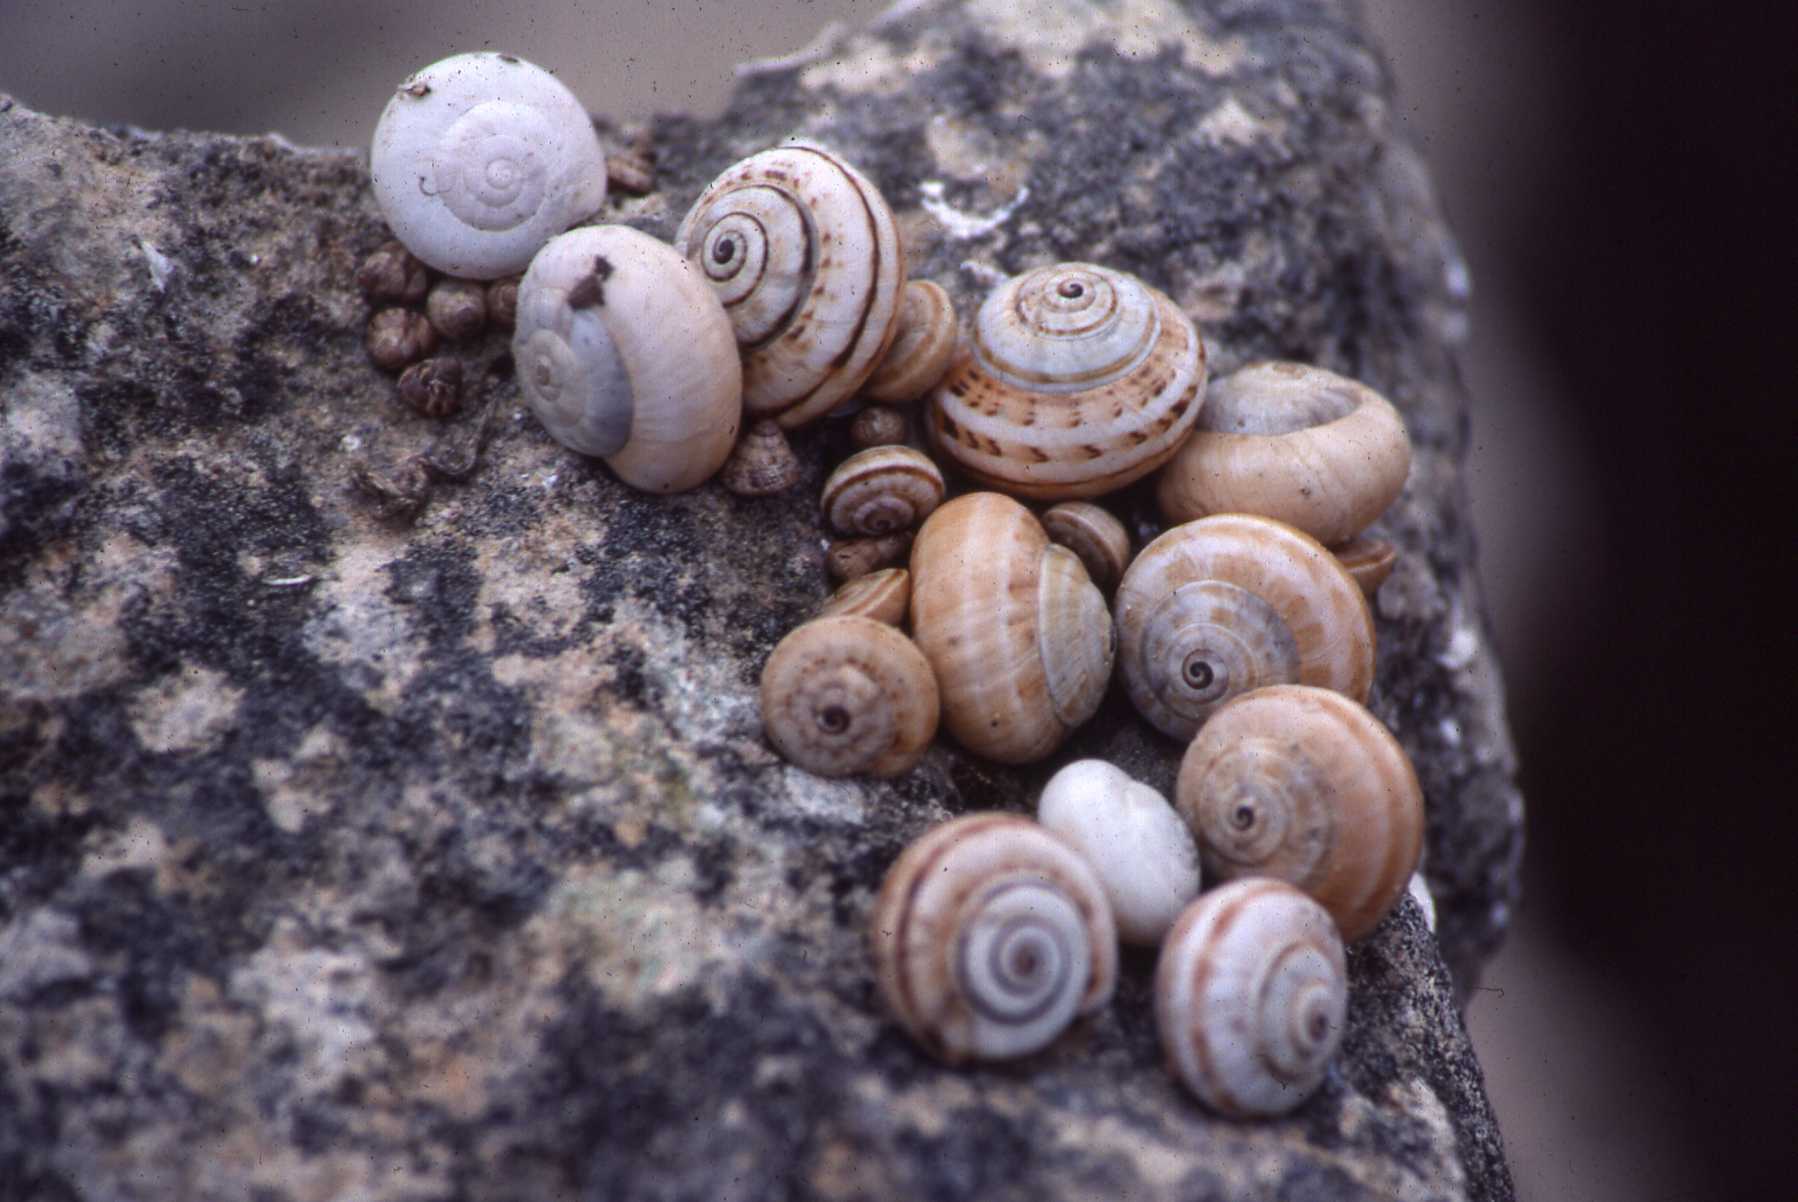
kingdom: Animalia
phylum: Mollusca
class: Gastropoda
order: Stylommatophora
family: Helicidae
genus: Theba
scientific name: Theba pisana
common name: White snail
